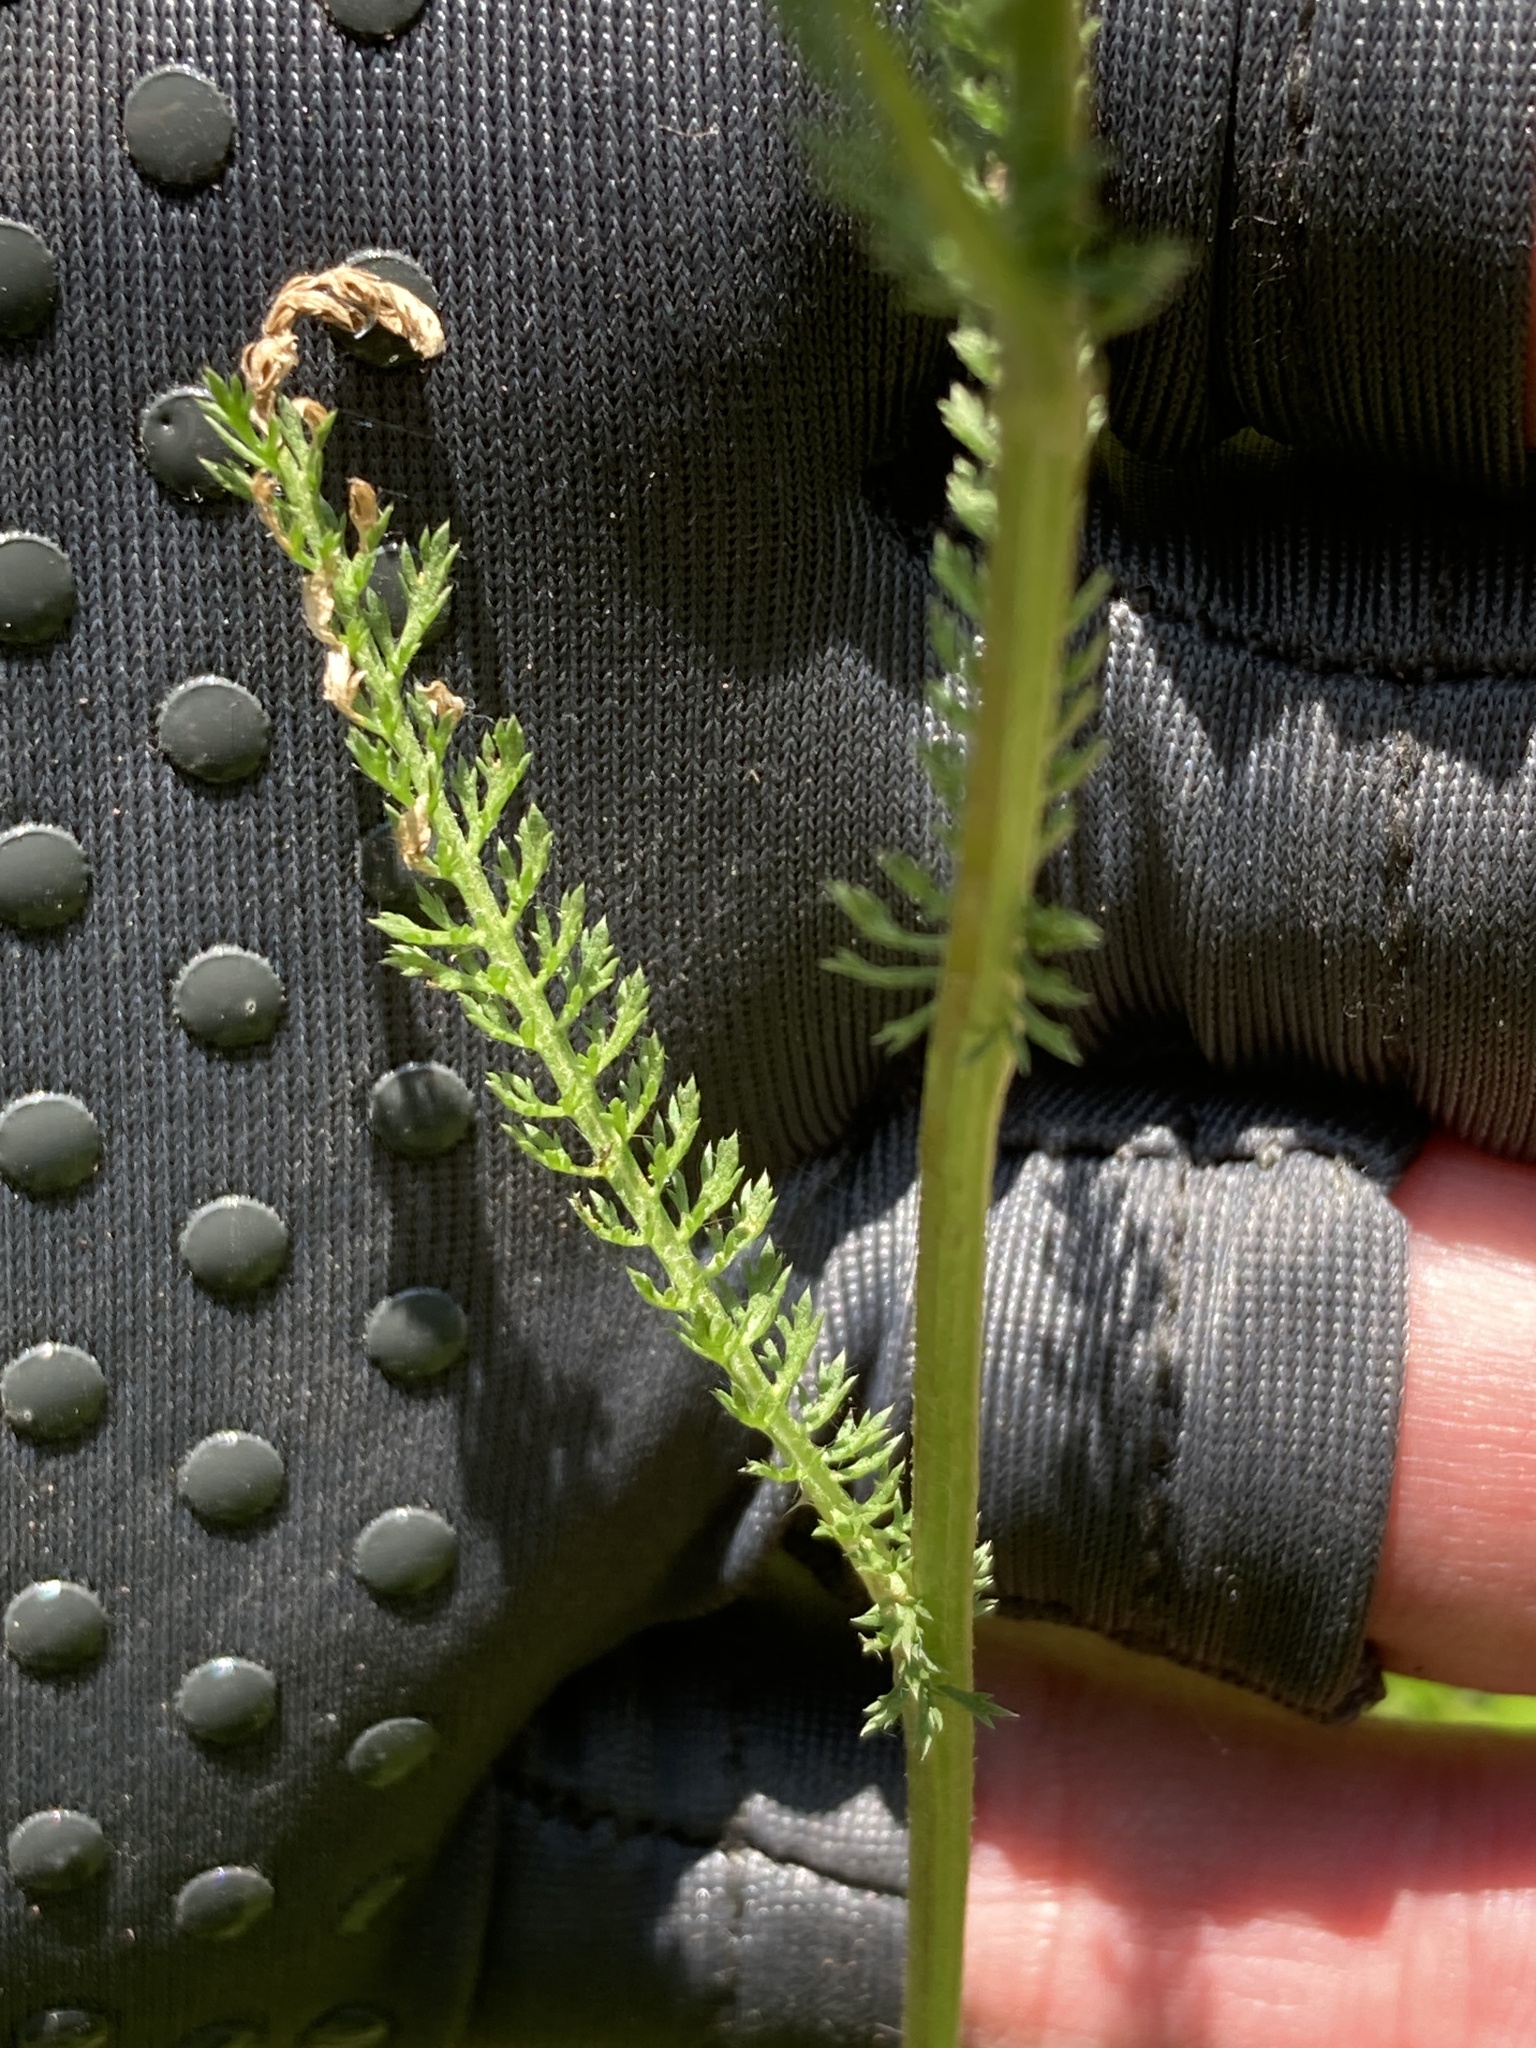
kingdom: Plantae
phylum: Tracheophyta
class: Magnoliopsida
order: Asterales
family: Asteraceae
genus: Achillea
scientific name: Achillea millefolium
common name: Yarrow
